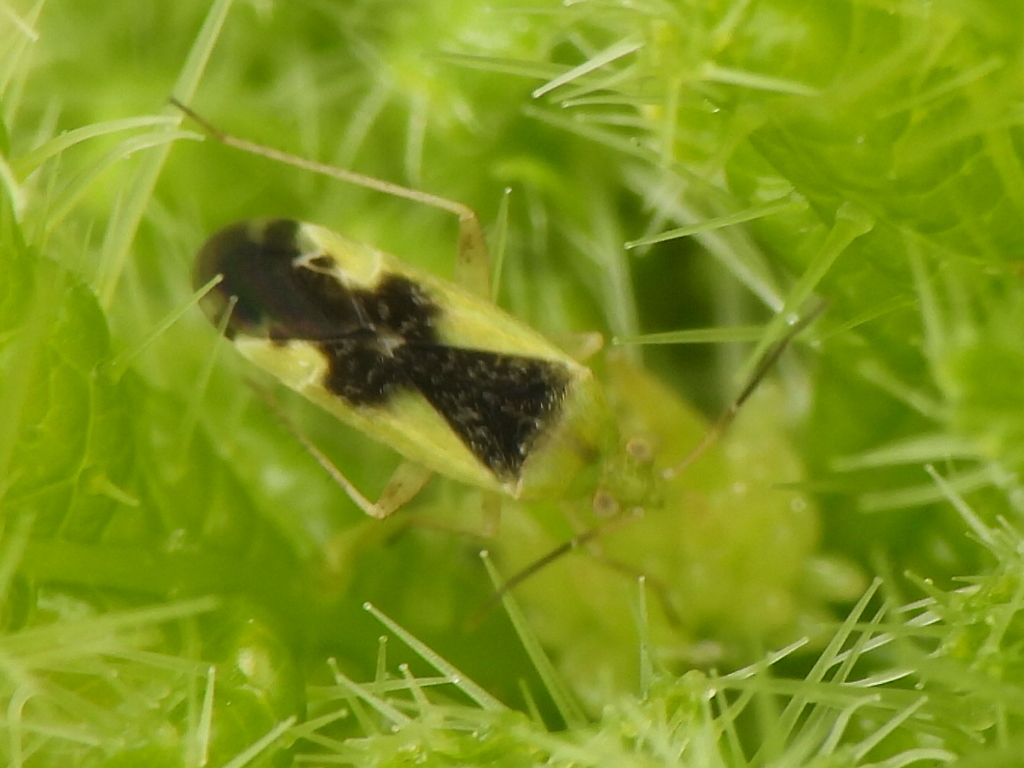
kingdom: Animalia
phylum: Arthropoda
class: Insecta
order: Hemiptera
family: Miridae
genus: Reuteroscopus
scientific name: Reuteroscopus ornatus
